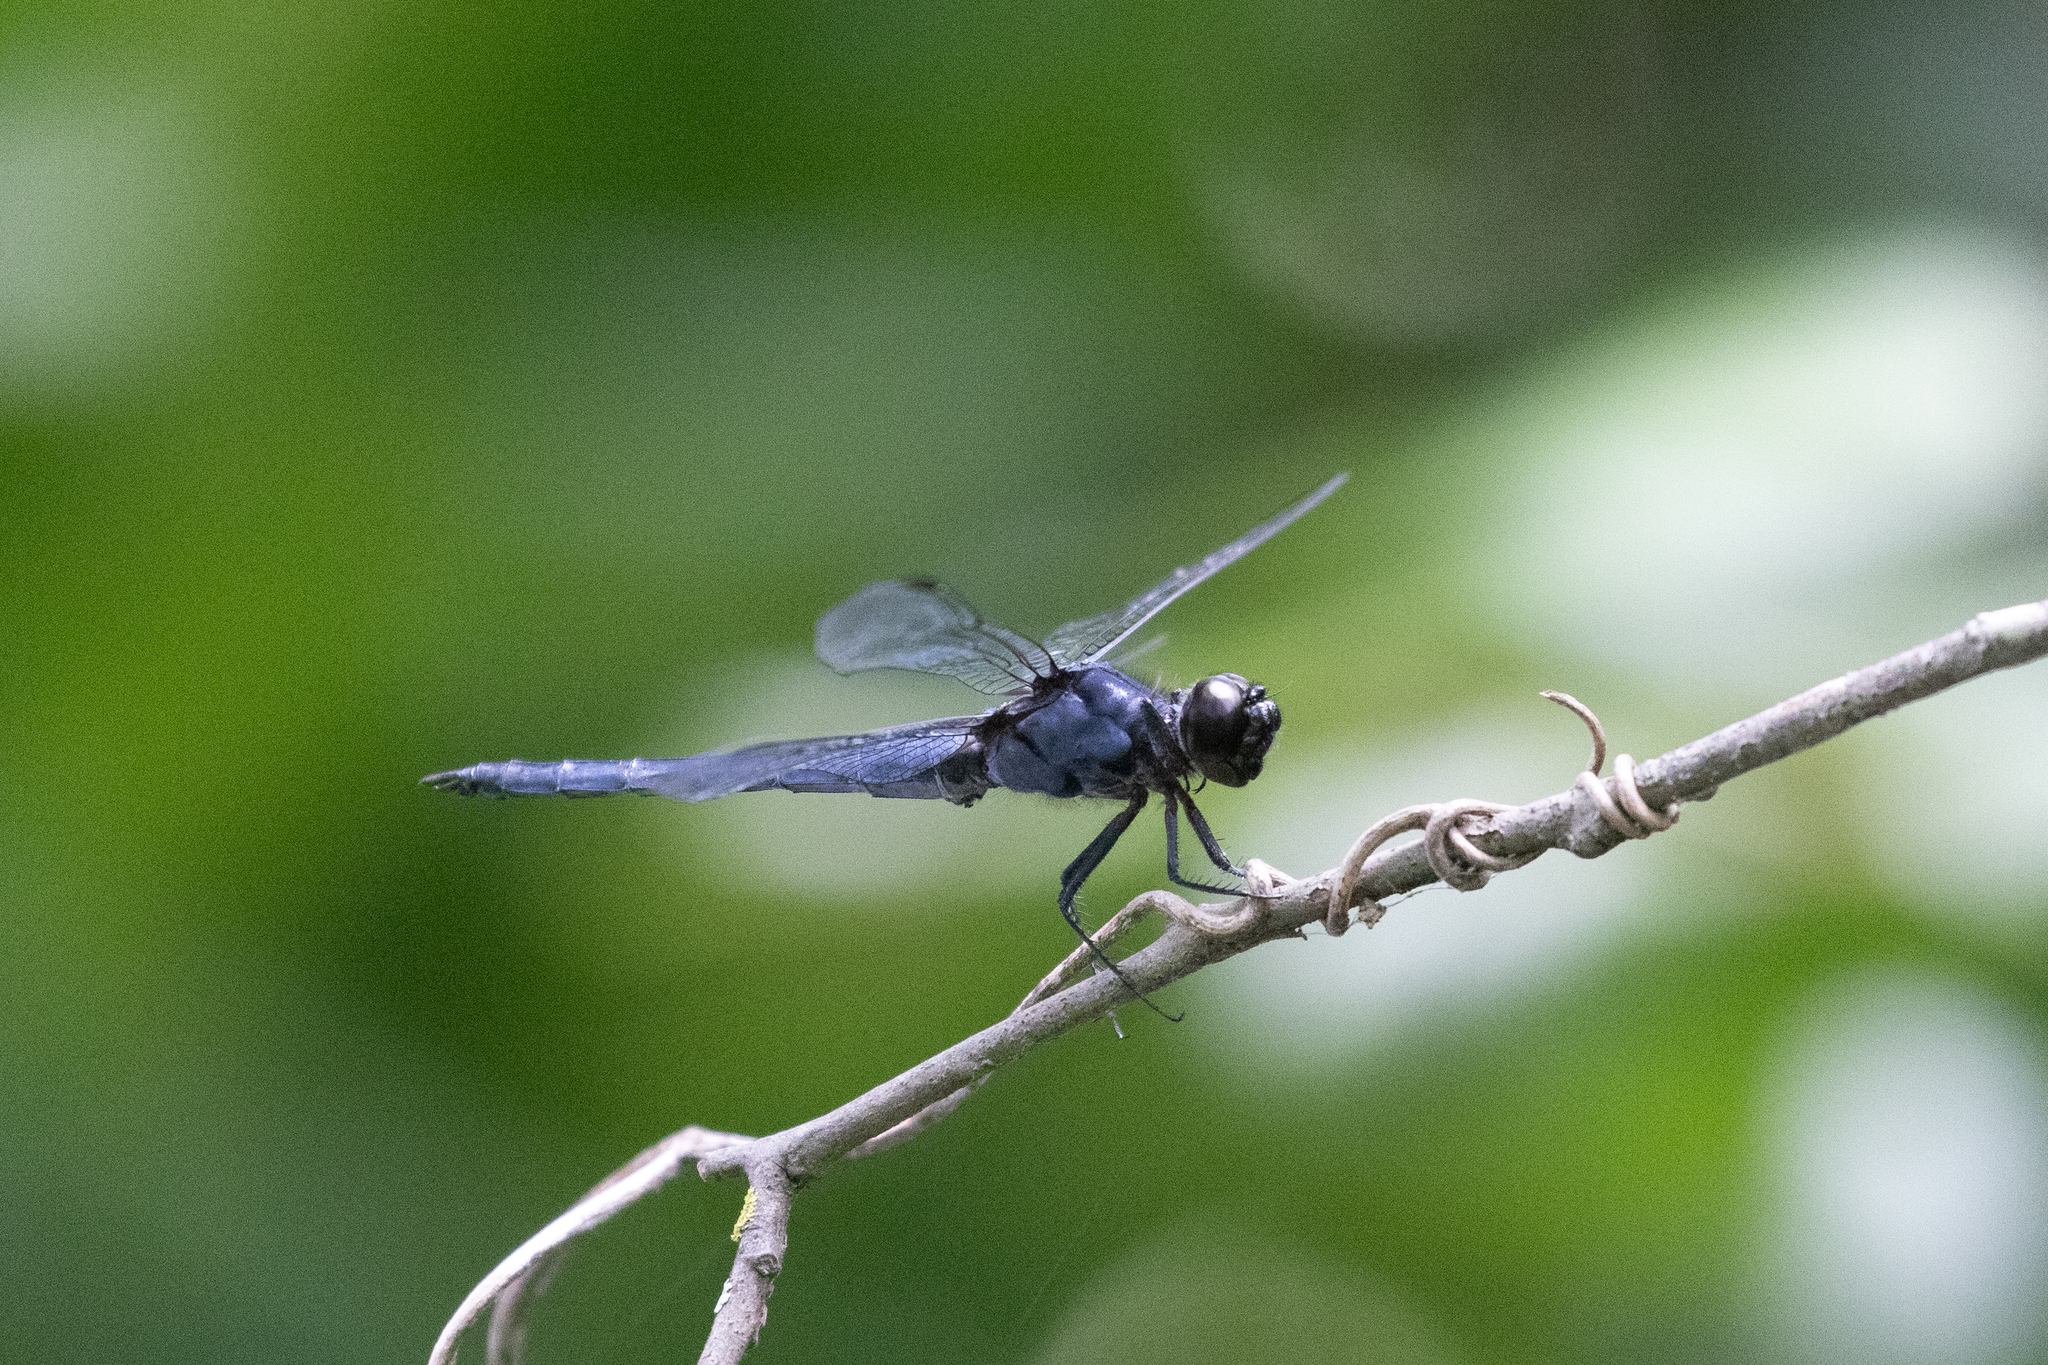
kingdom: Animalia
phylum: Arthropoda
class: Insecta
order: Odonata
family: Libellulidae
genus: Libellula
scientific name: Libellula incesta
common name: Slaty skimmer
